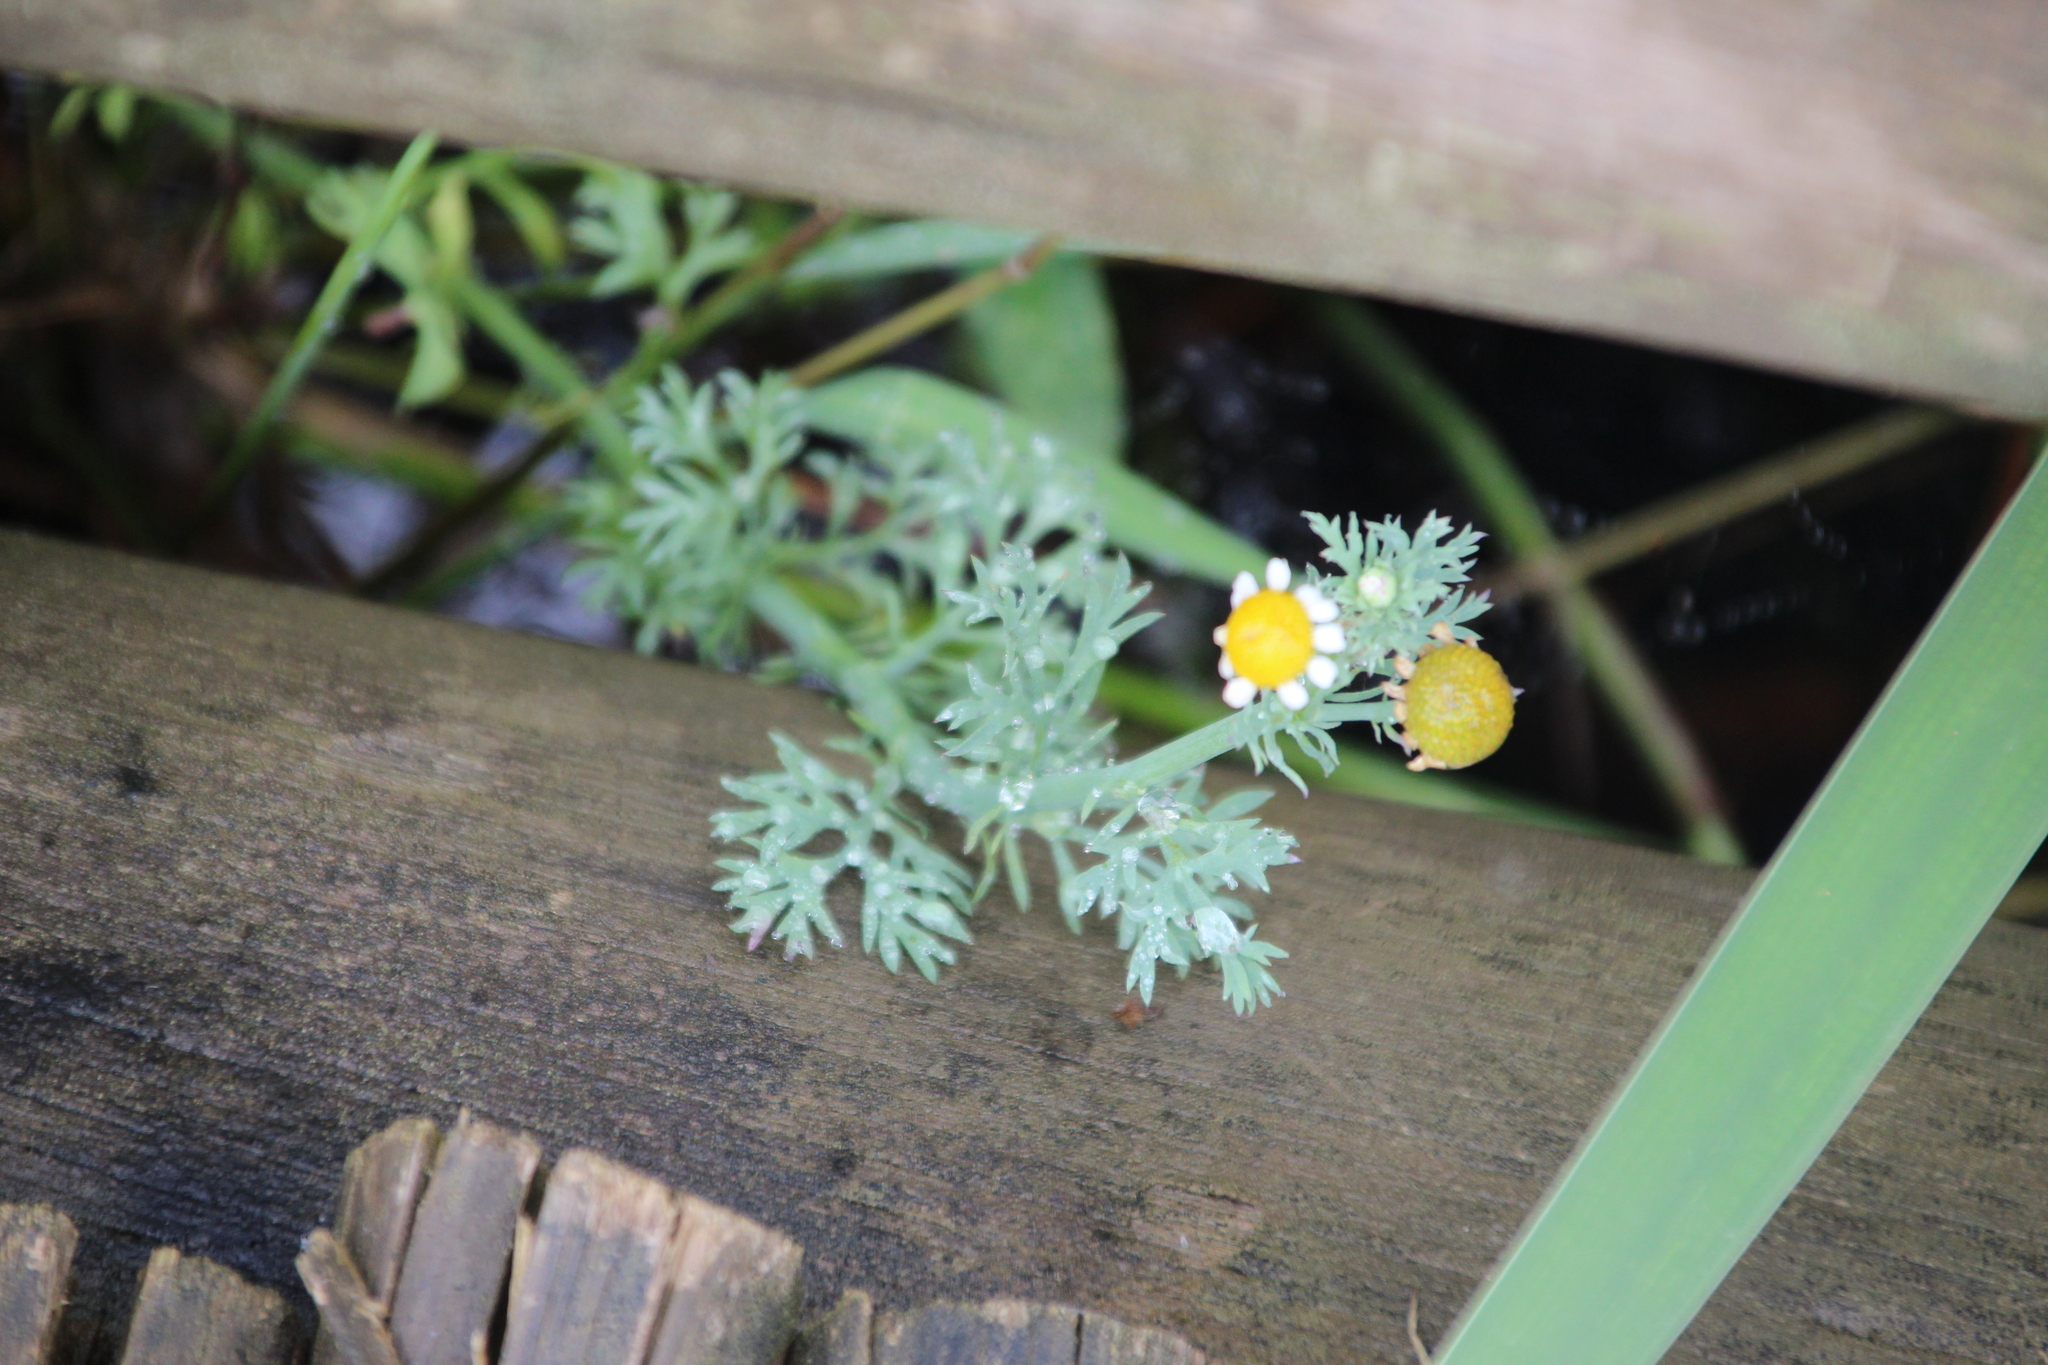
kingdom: Plantae
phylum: Tracheophyta
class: Magnoliopsida
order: Asterales
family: Asteraceae
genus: Cotula
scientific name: Cotula nigellifolia
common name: Staggerweed
